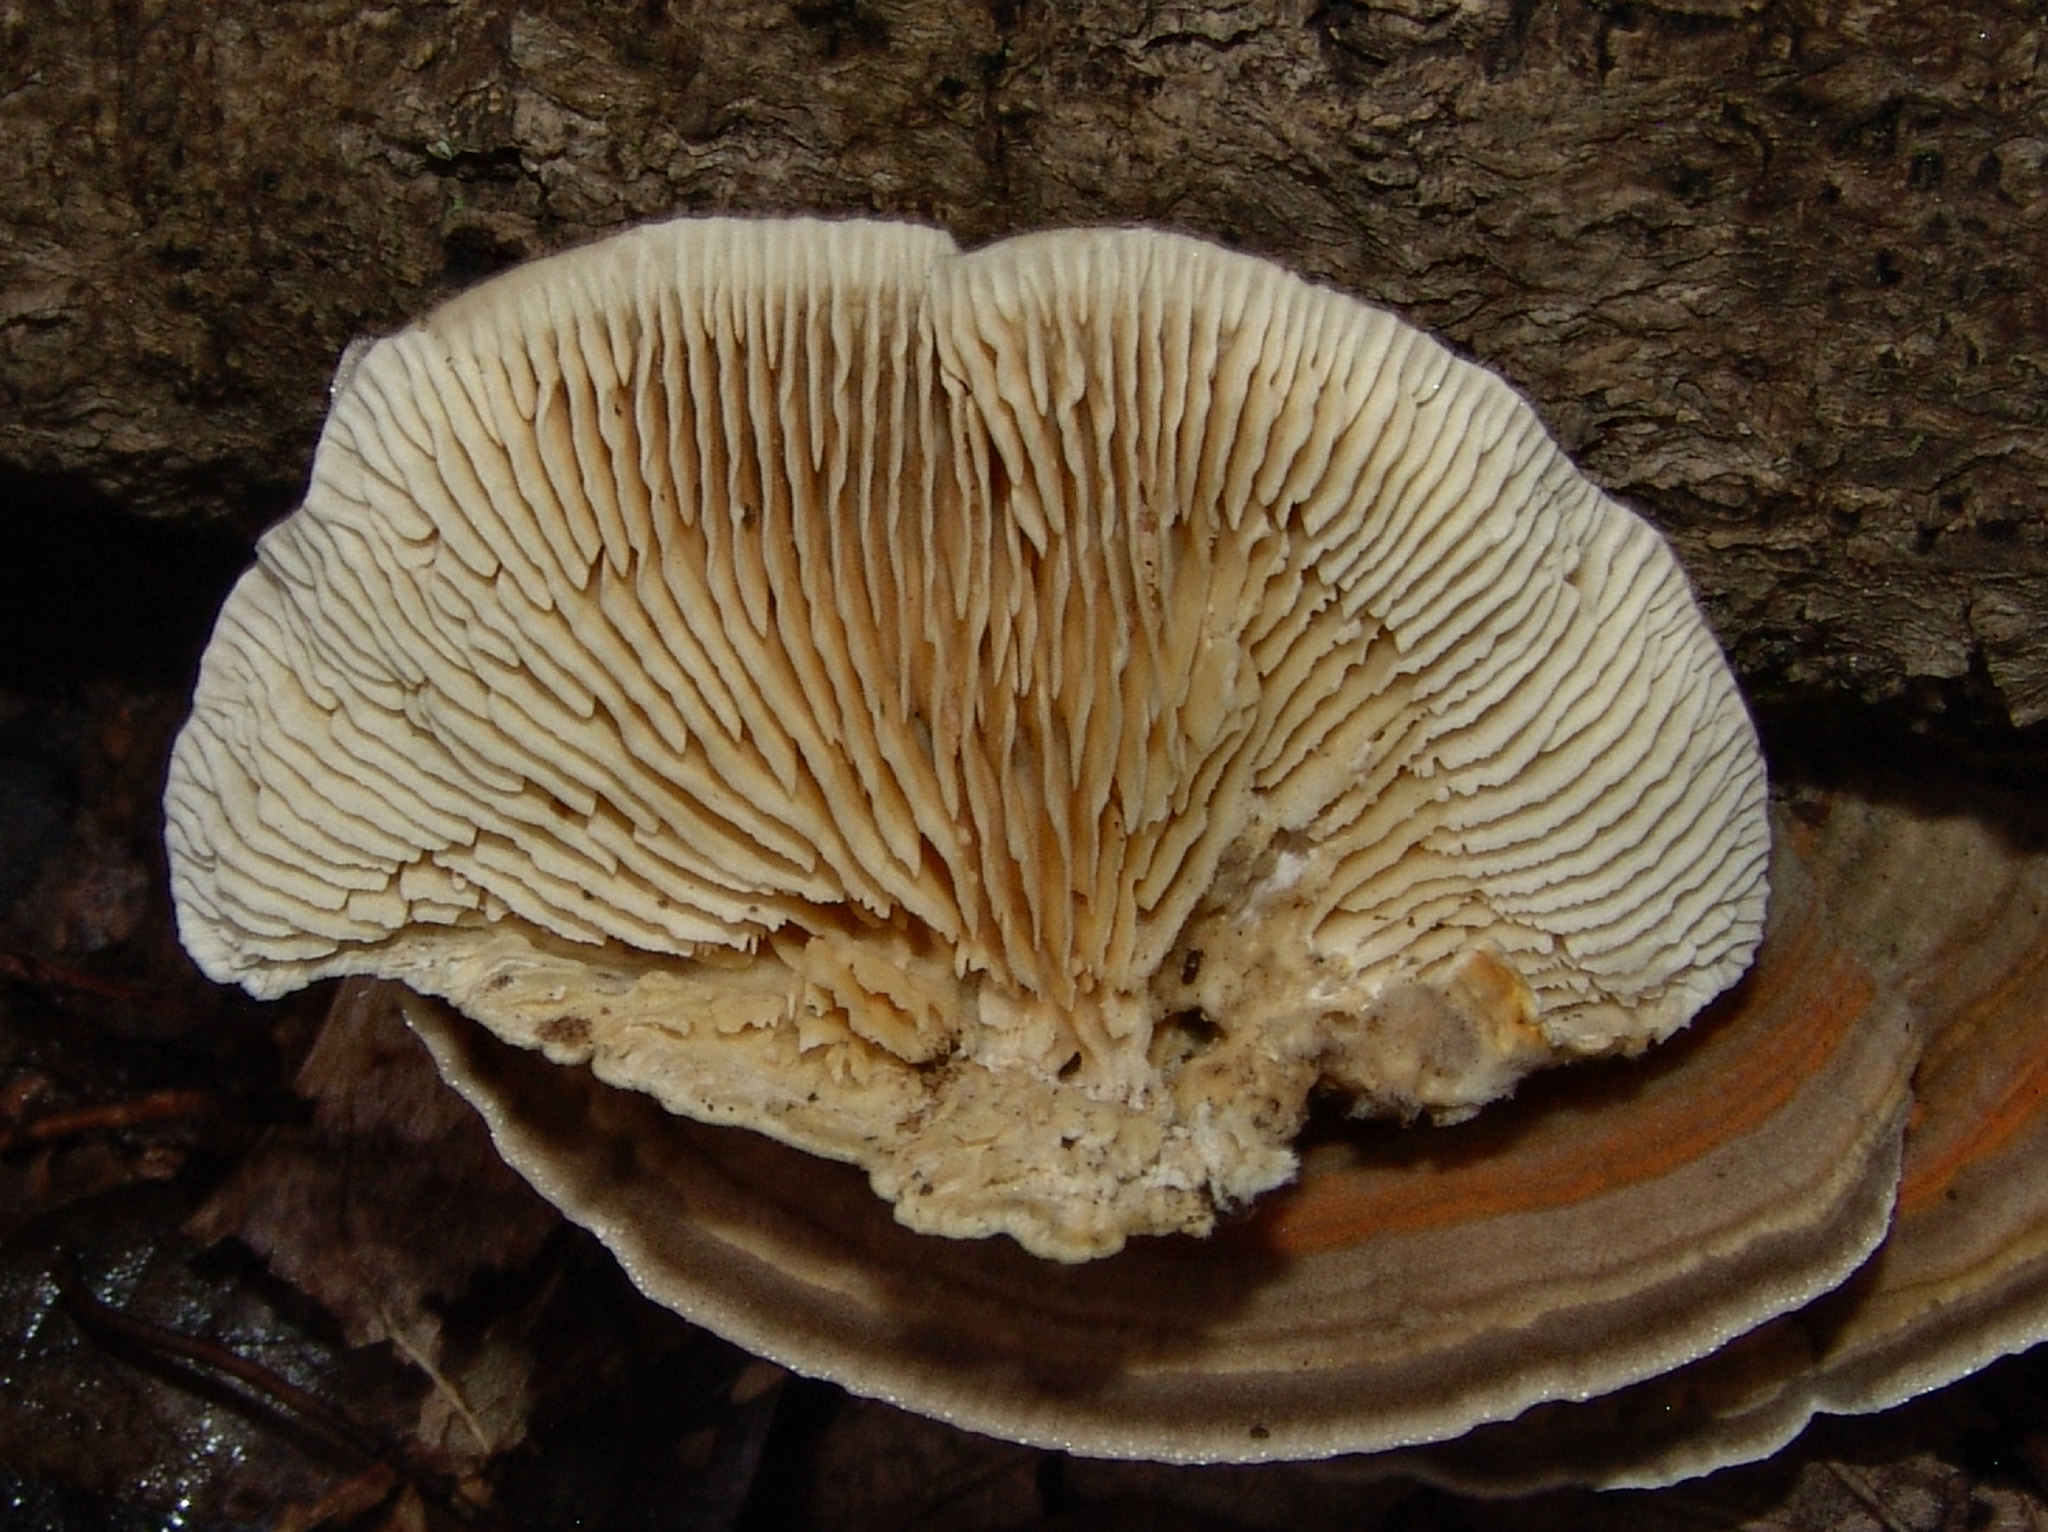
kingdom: Fungi
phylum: Basidiomycota
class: Agaricomycetes
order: Polyporales
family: Polyporaceae
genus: Lenzites
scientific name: Lenzites betulinus
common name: Birch mazegill
